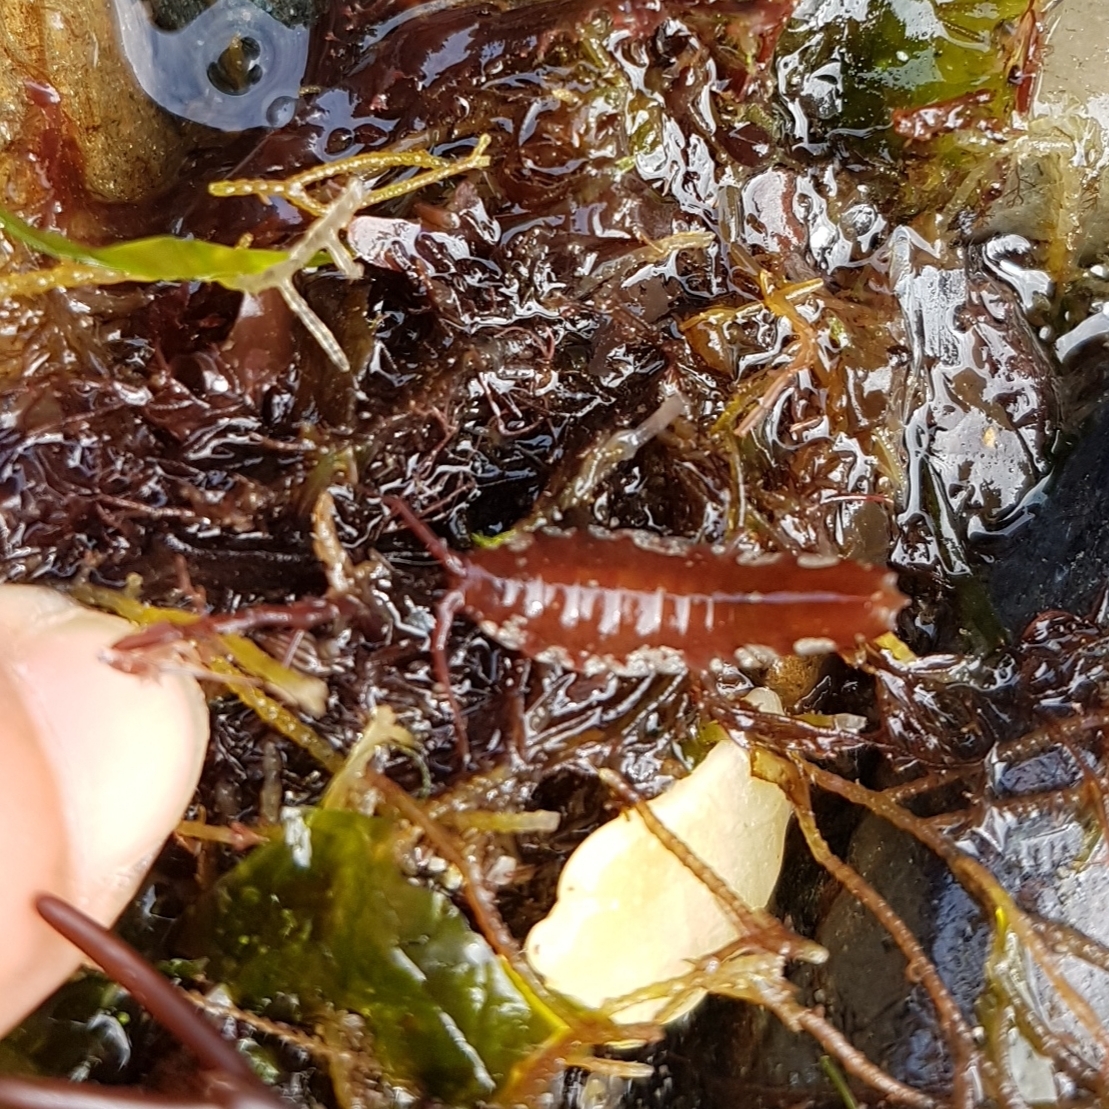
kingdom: Animalia
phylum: Arthropoda
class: Malacostraca
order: Isopoda
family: Idoteidae
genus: Idotea
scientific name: Idotea balthica
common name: Baltic isopod
